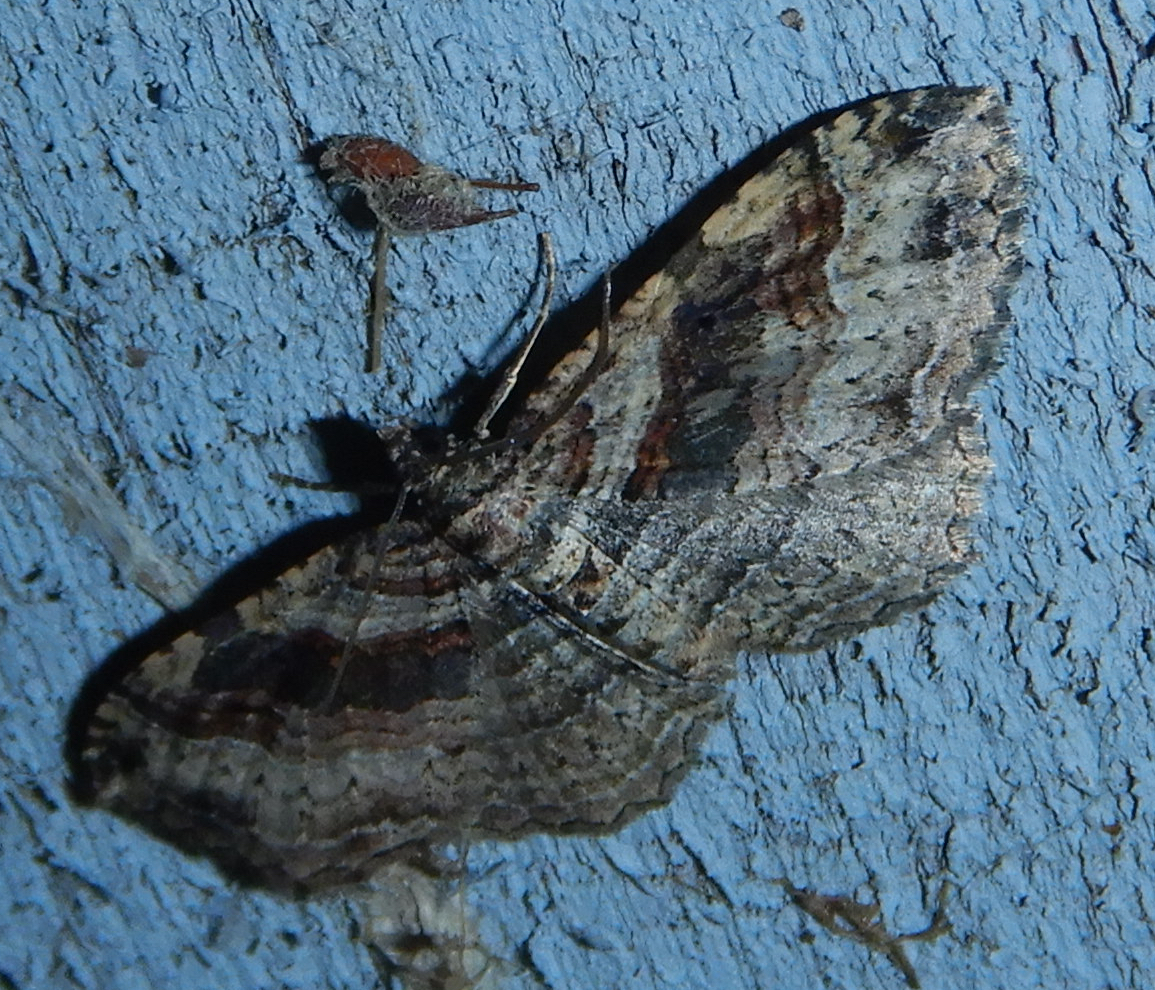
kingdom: Animalia
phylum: Arthropoda
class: Insecta
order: Lepidoptera
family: Geometridae
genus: Costaconvexa
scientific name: Costaconvexa centrostrigaria
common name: Bent-line carpet
